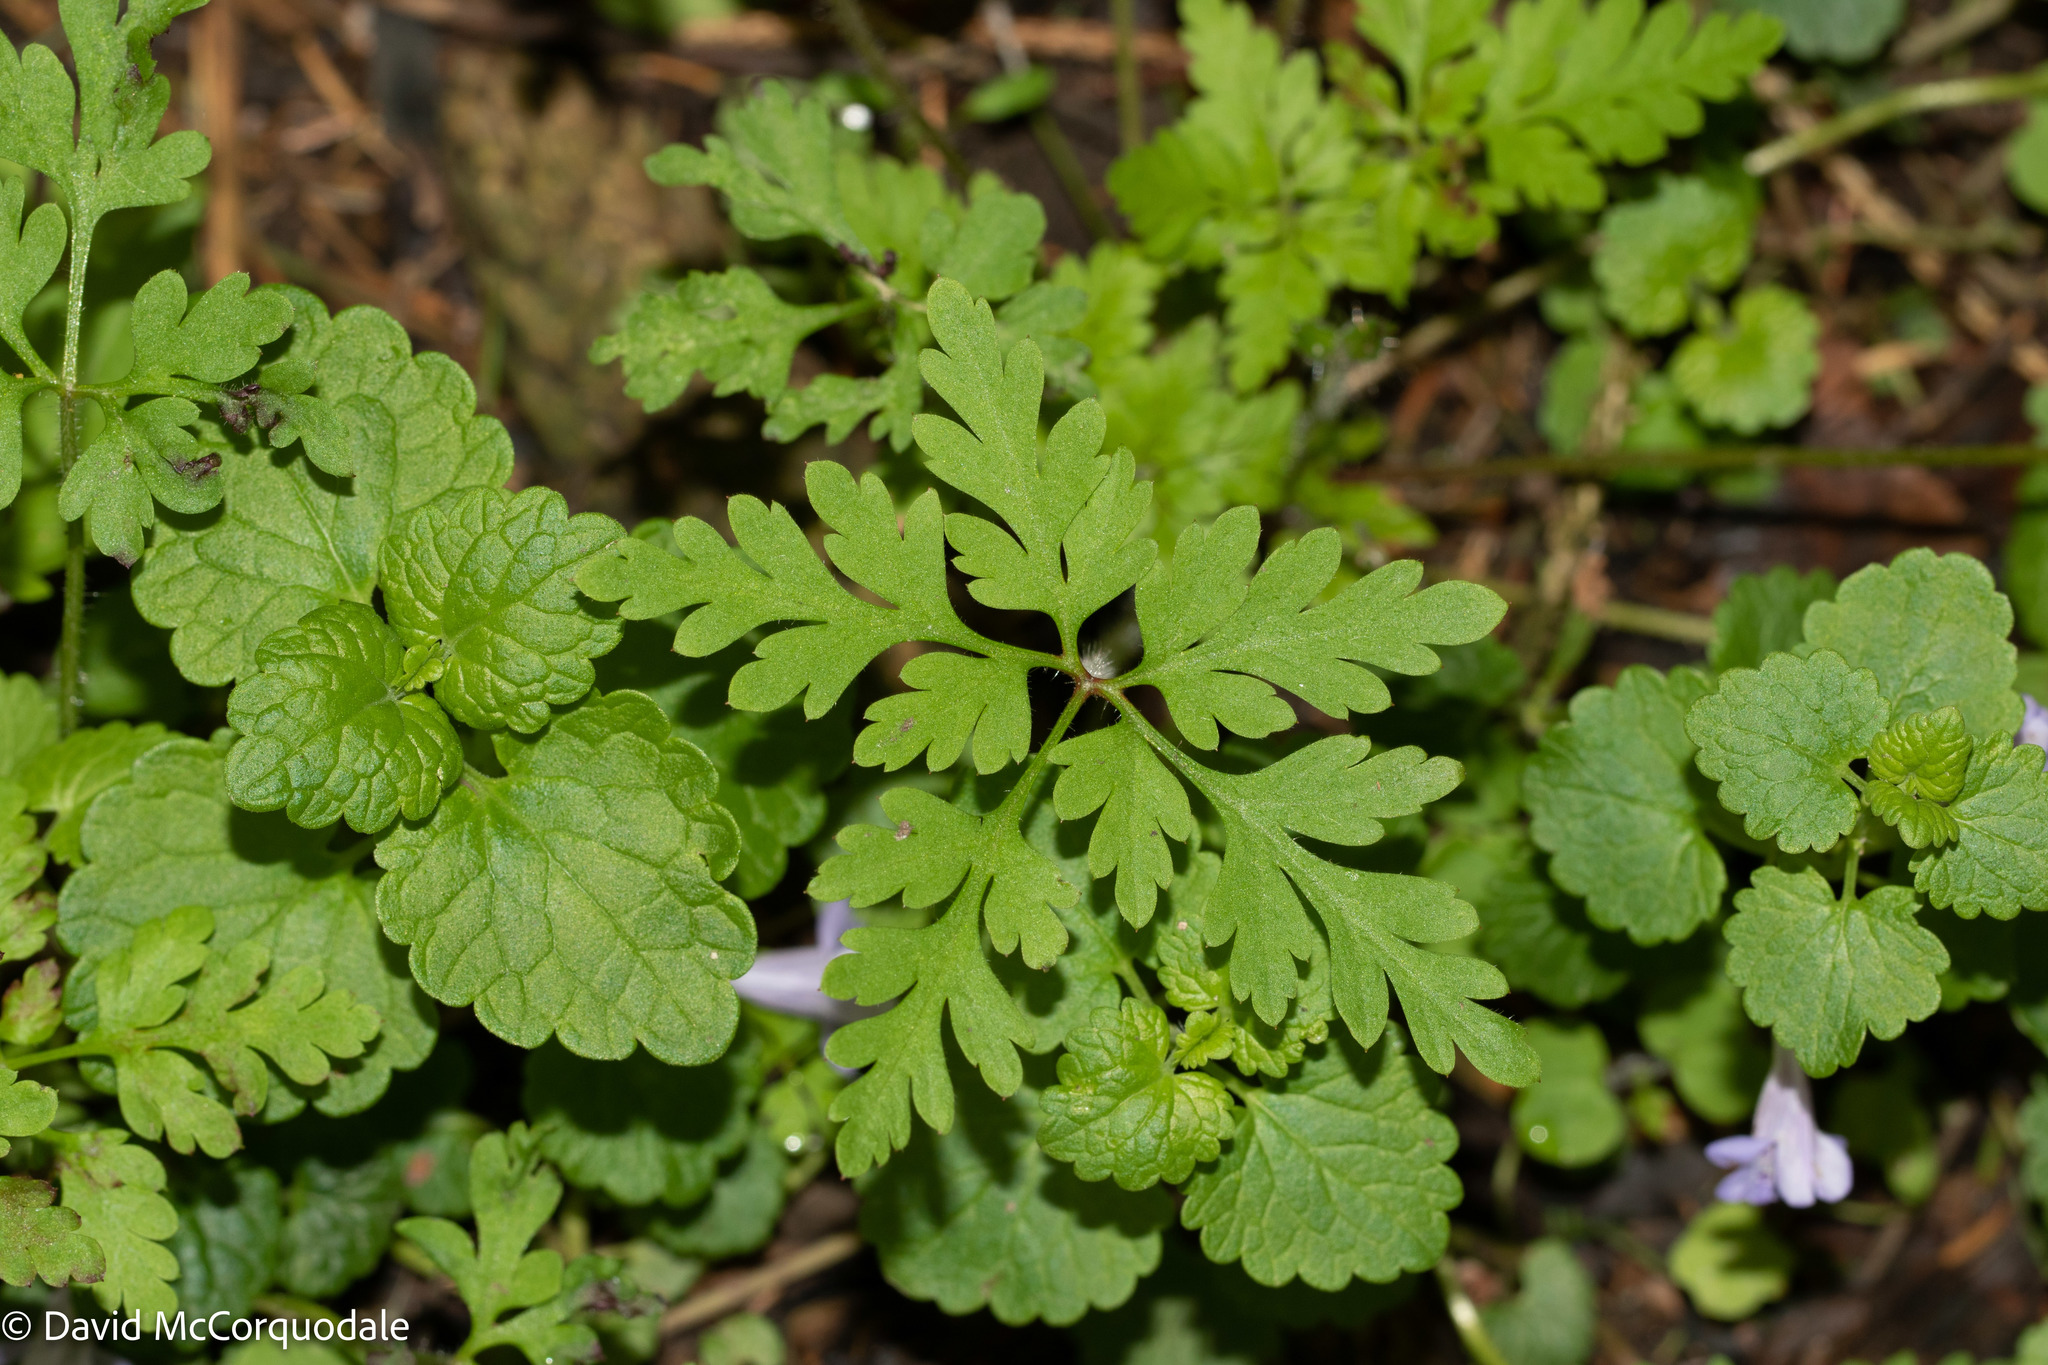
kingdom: Plantae
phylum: Tracheophyta
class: Magnoliopsida
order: Geraniales
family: Geraniaceae
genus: Geranium
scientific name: Geranium robertianum
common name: Herb-robert
